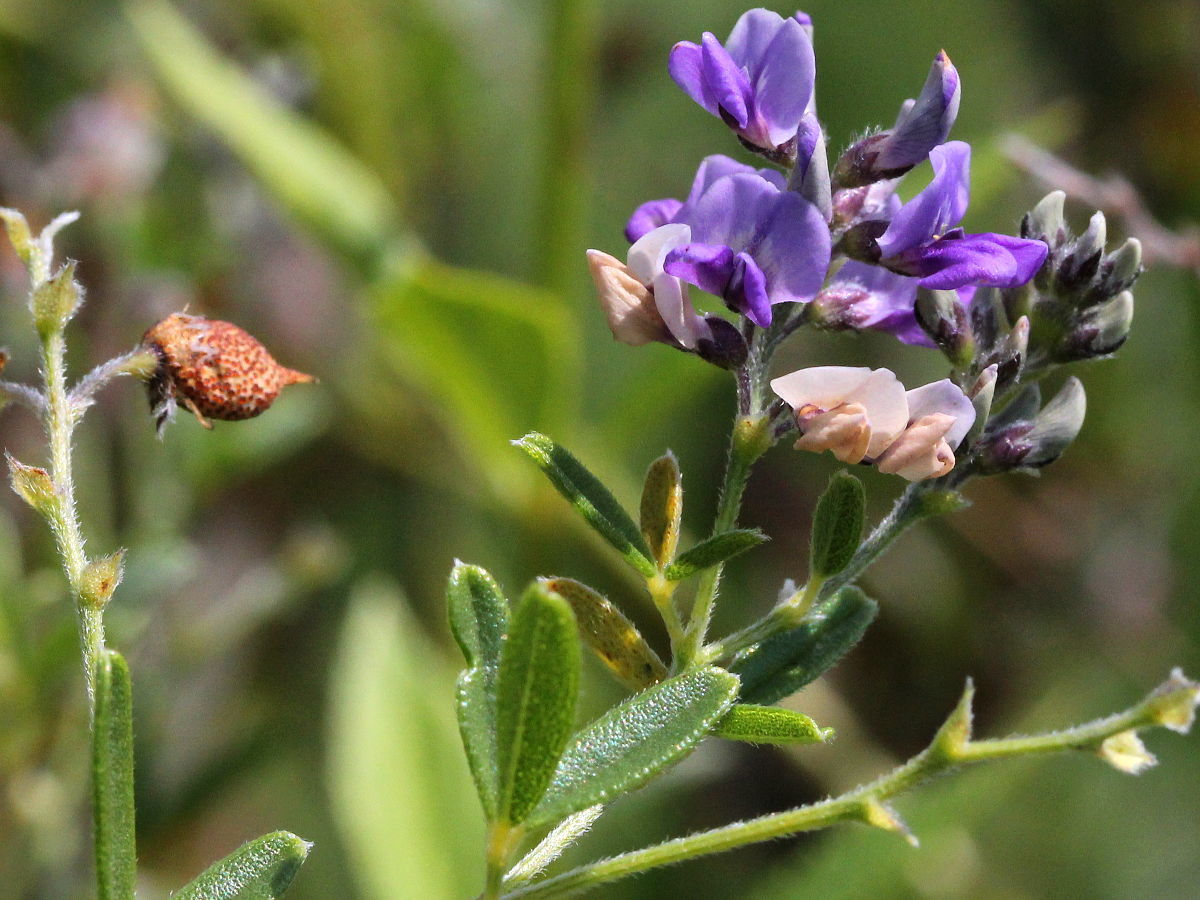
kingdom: Plantae
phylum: Tracheophyta
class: Magnoliopsida
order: Fabales
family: Fabaceae
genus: Pediomelum
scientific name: Pediomelum tenuiflorum
